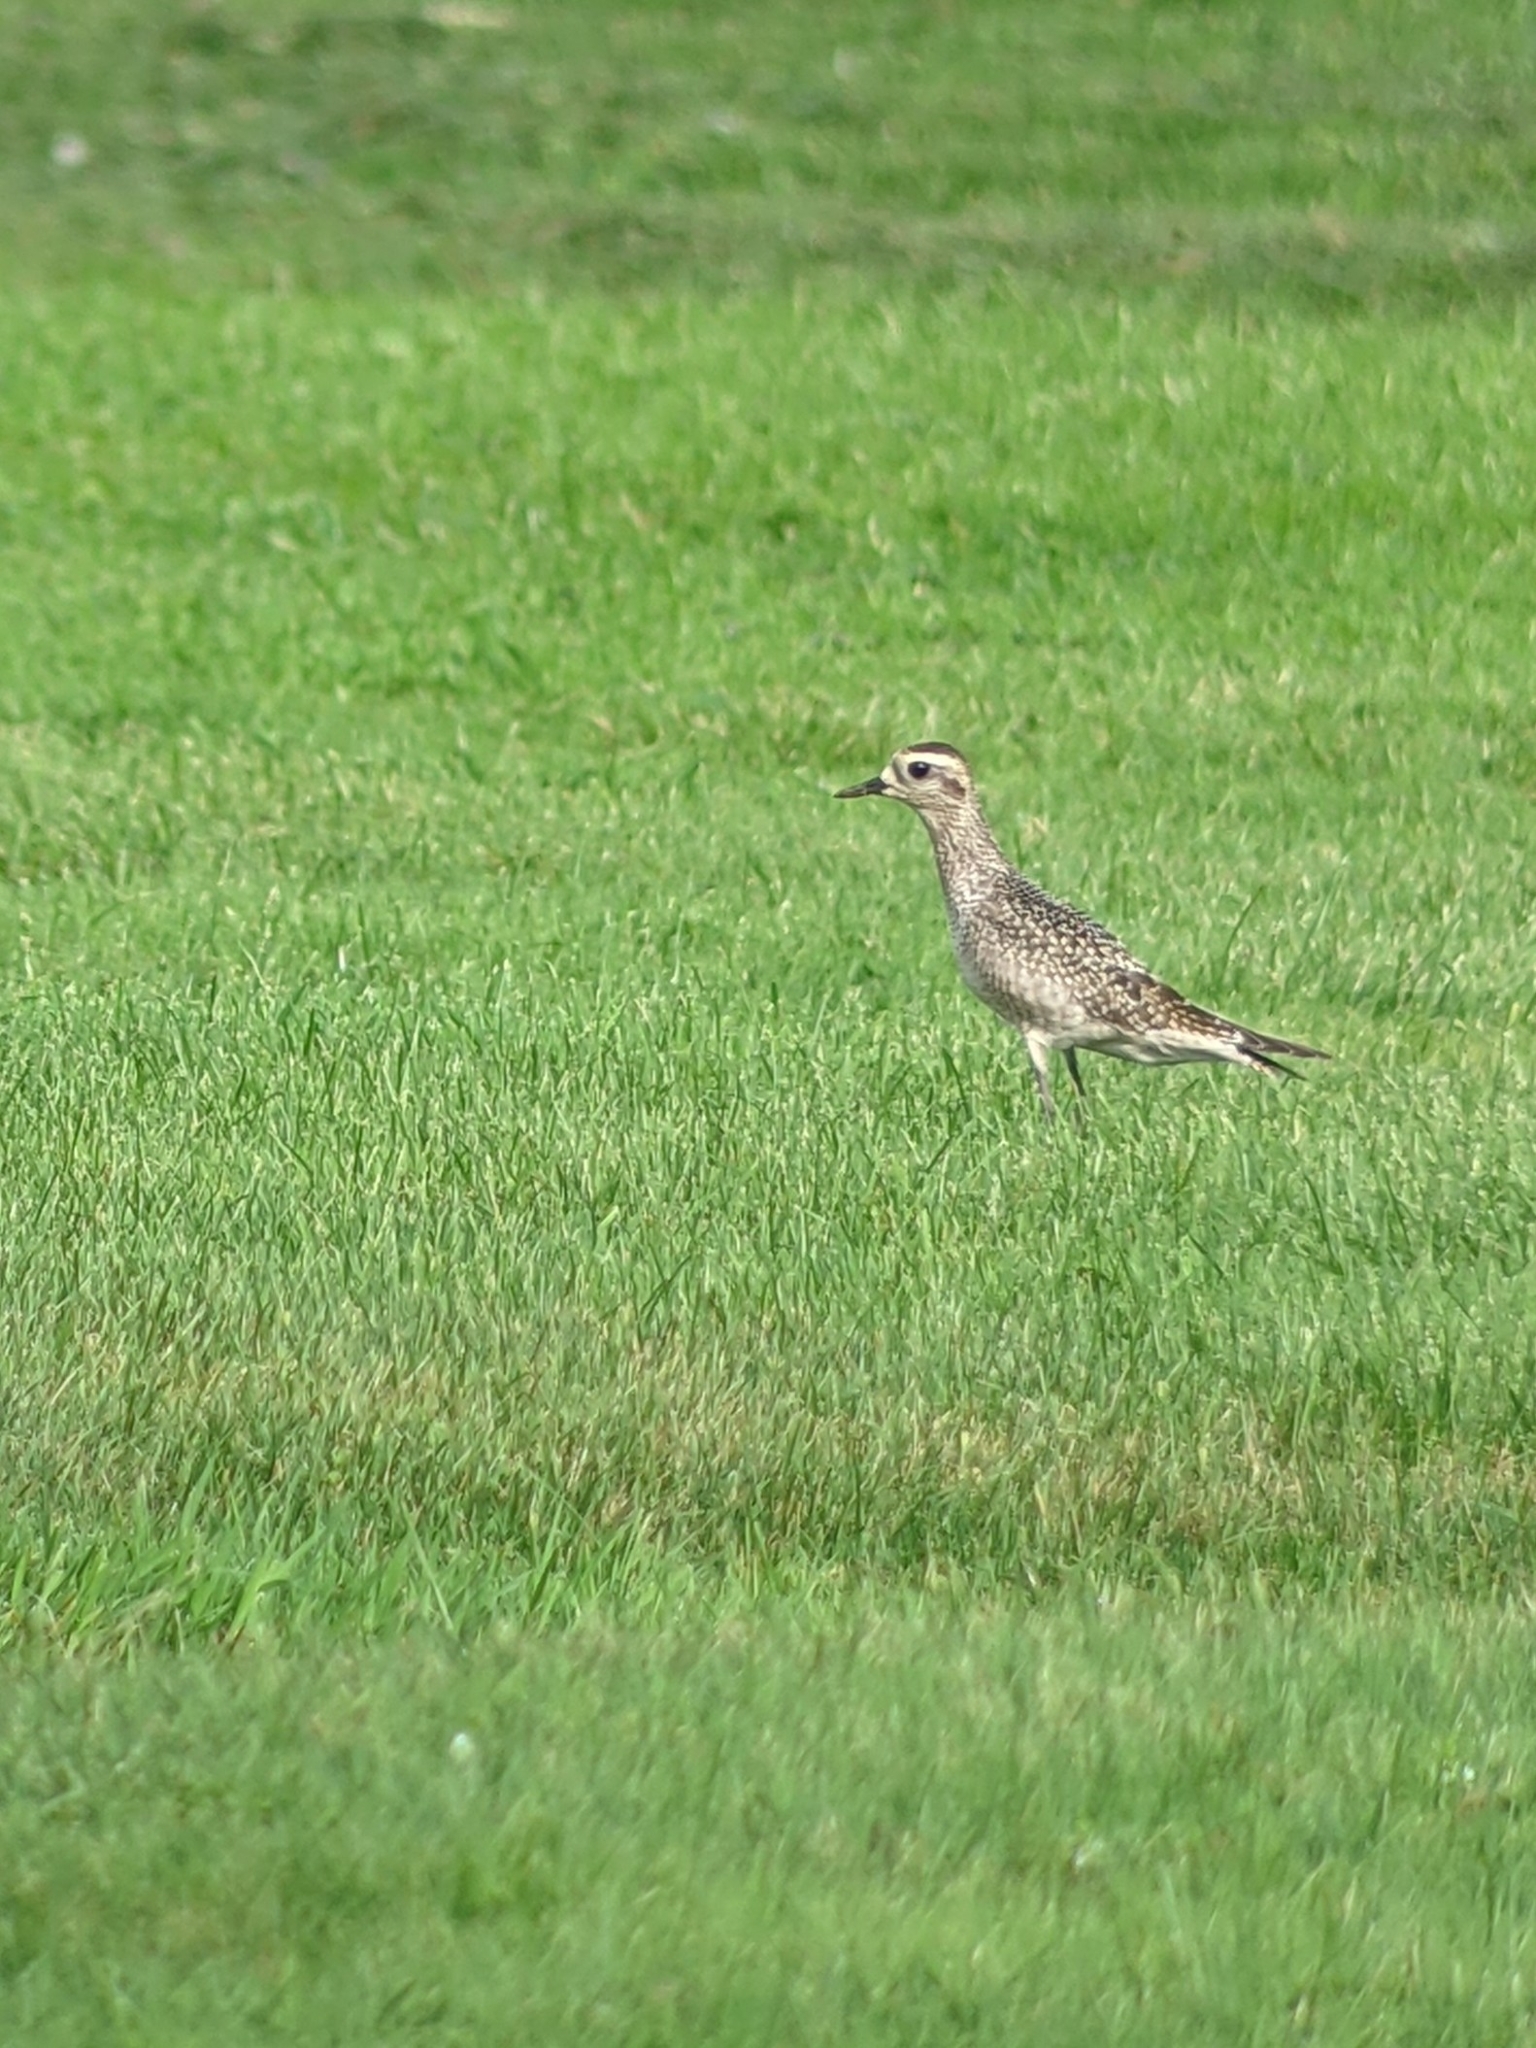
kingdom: Animalia
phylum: Chordata
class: Aves
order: Charadriiformes
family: Charadriidae
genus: Pluvialis
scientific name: Pluvialis dominica
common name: American golden plover
